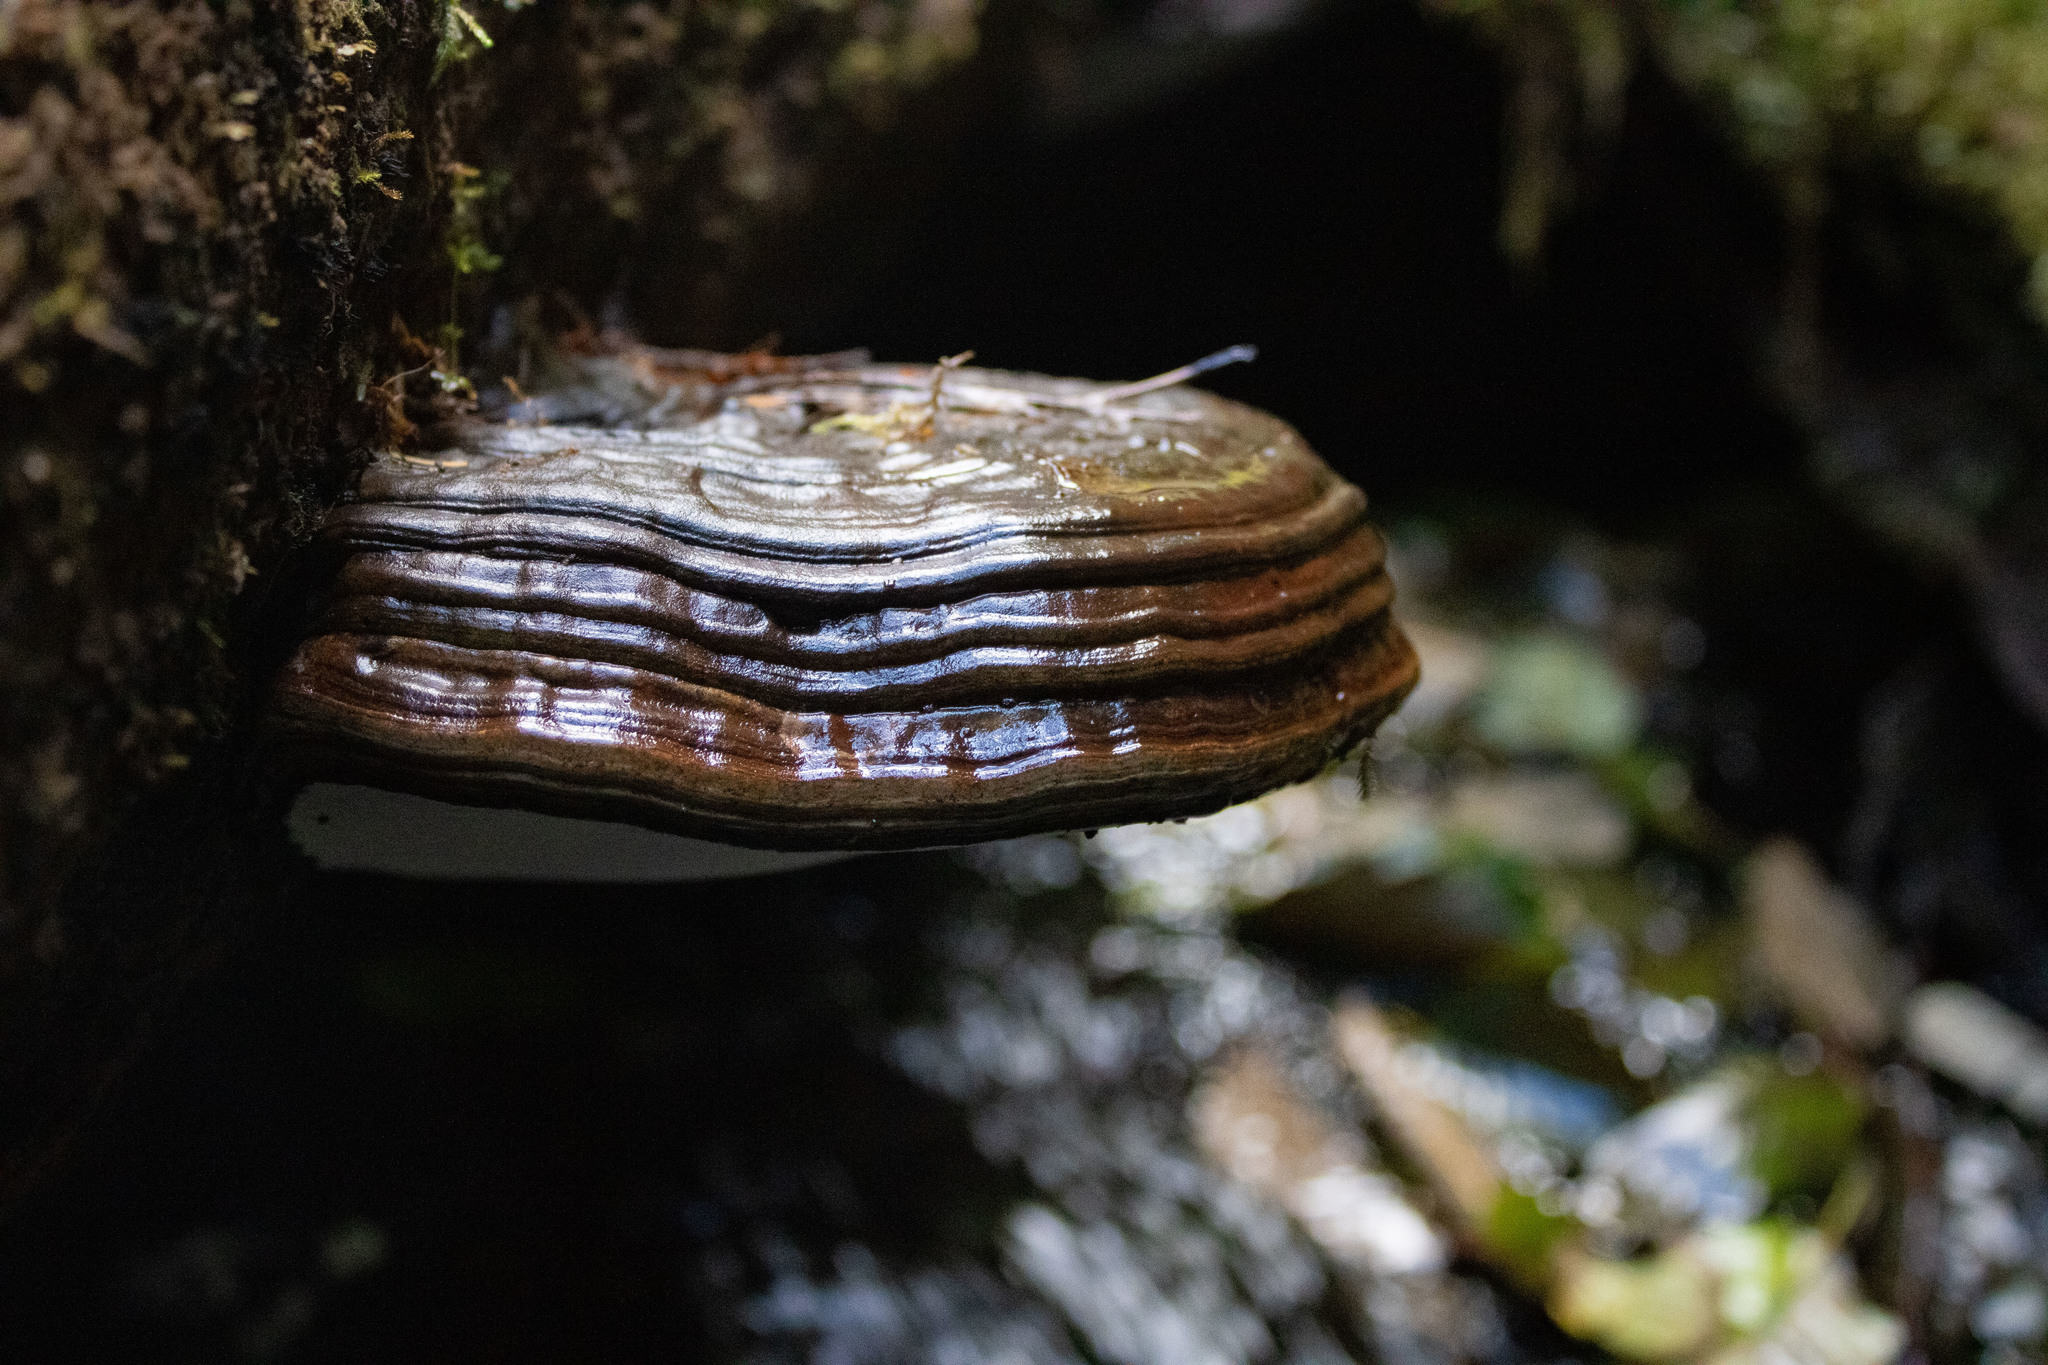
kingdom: Fungi
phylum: Basidiomycota
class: Agaricomycetes
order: Polyporales
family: Polyporaceae
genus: Ganoderma
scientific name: Ganoderma brownii
